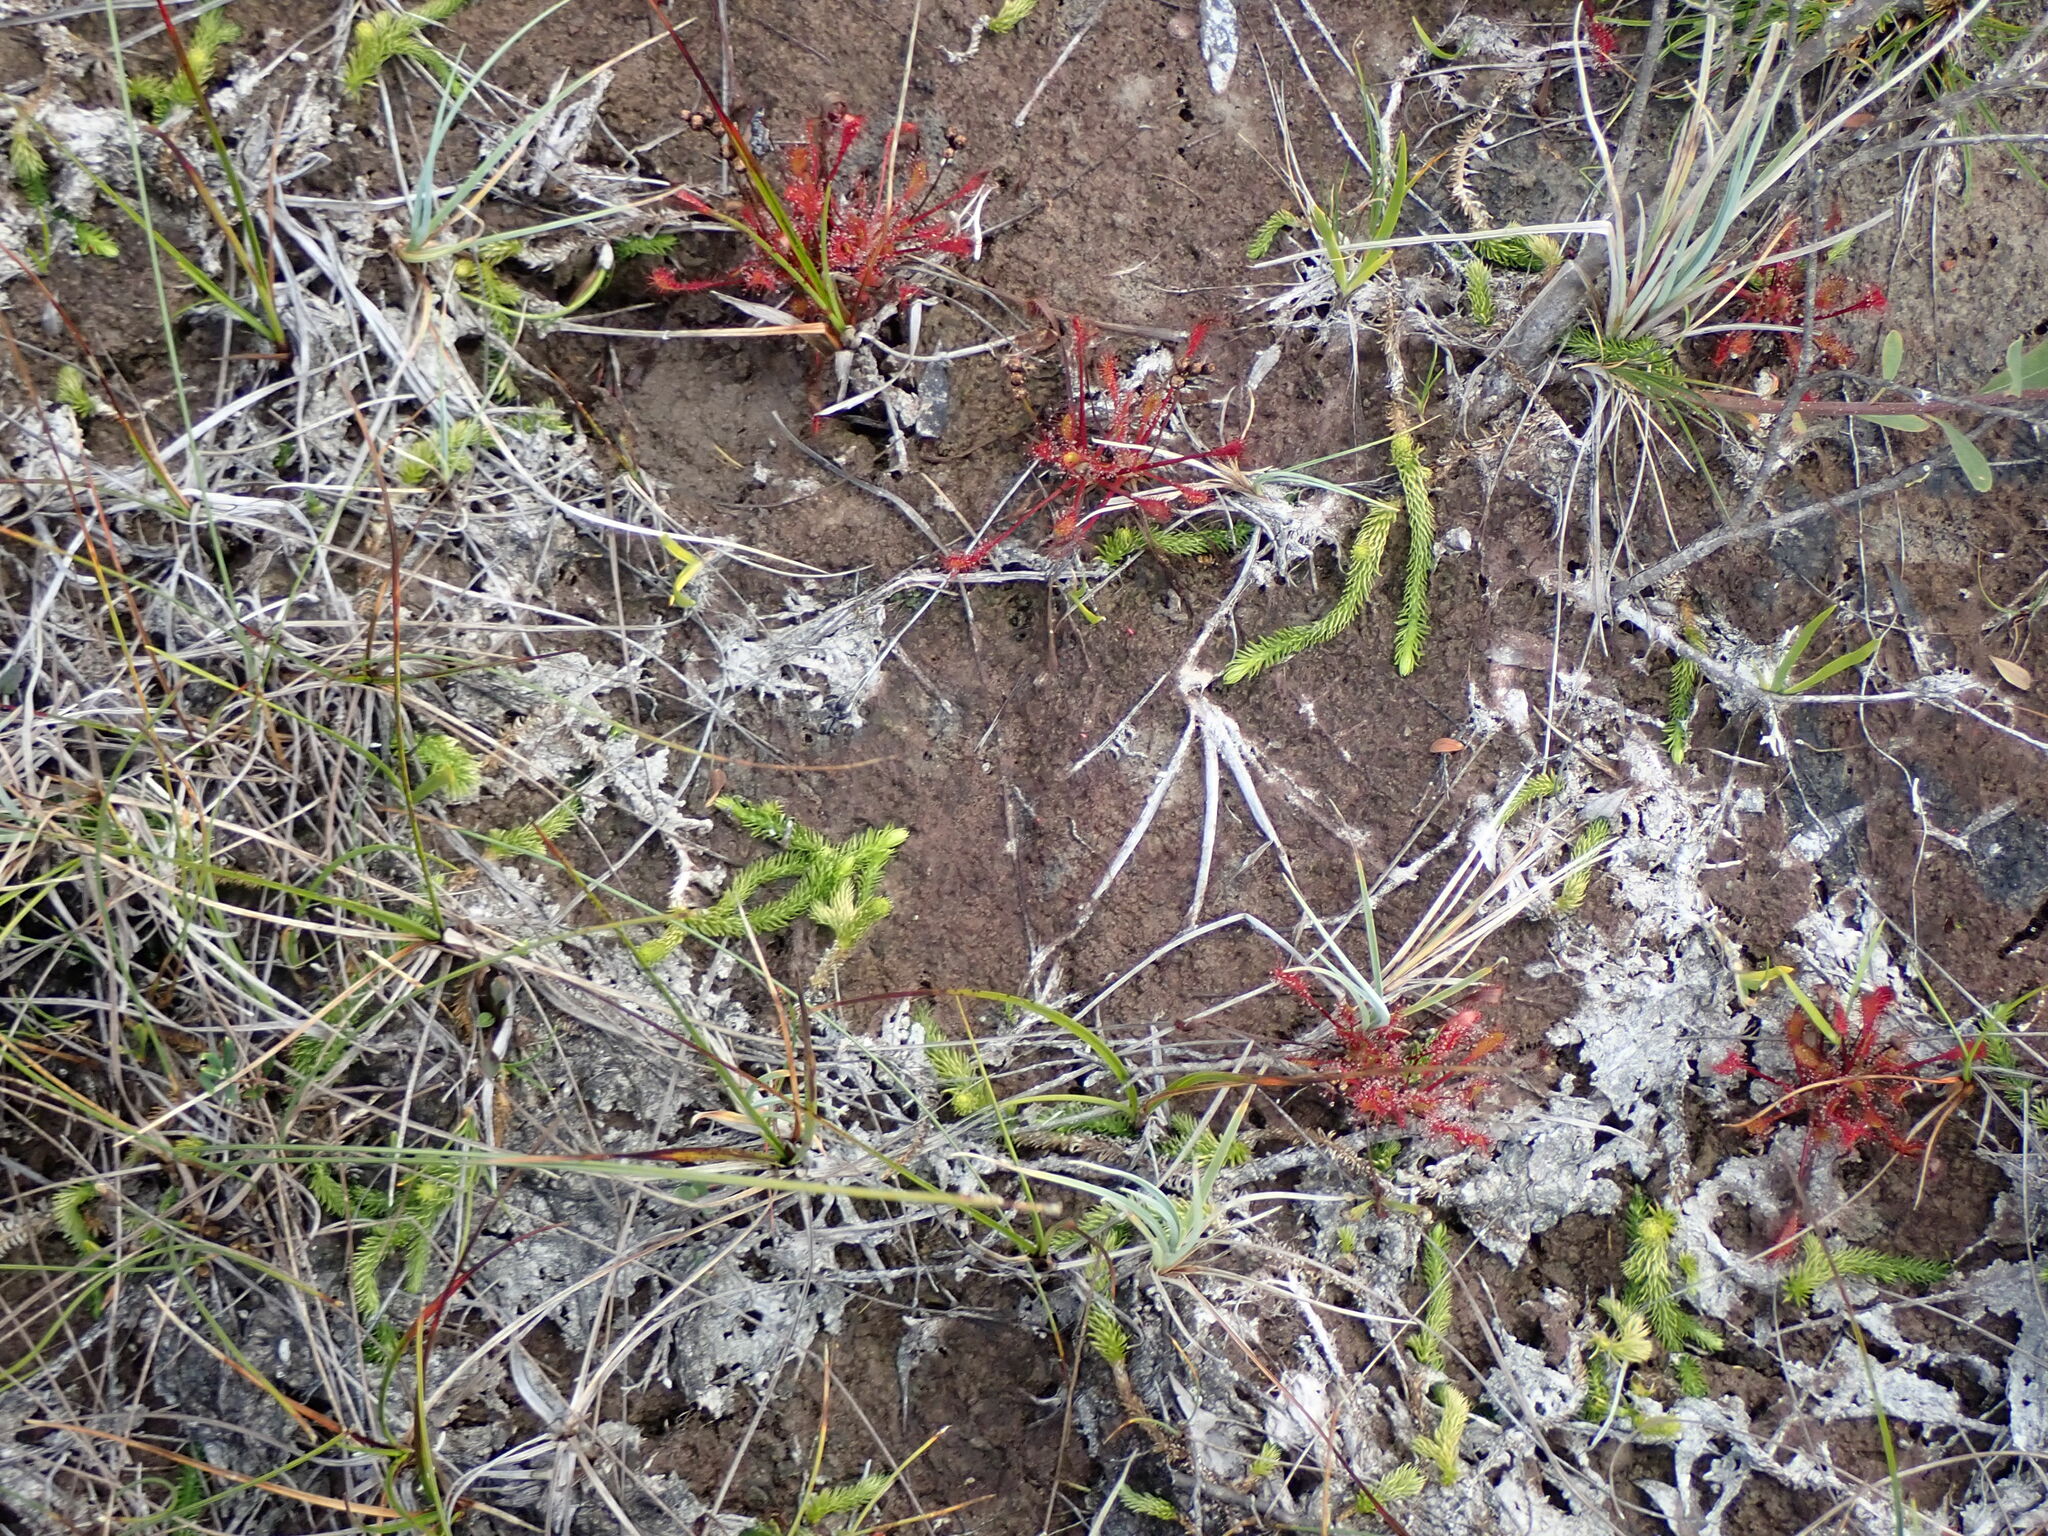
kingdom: Plantae
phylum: Tracheophyta
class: Lycopodiopsida
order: Lycopodiales
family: Lycopodiaceae
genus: Lycopodiella
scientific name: Lycopodiella inundata
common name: Marsh clubmoss
